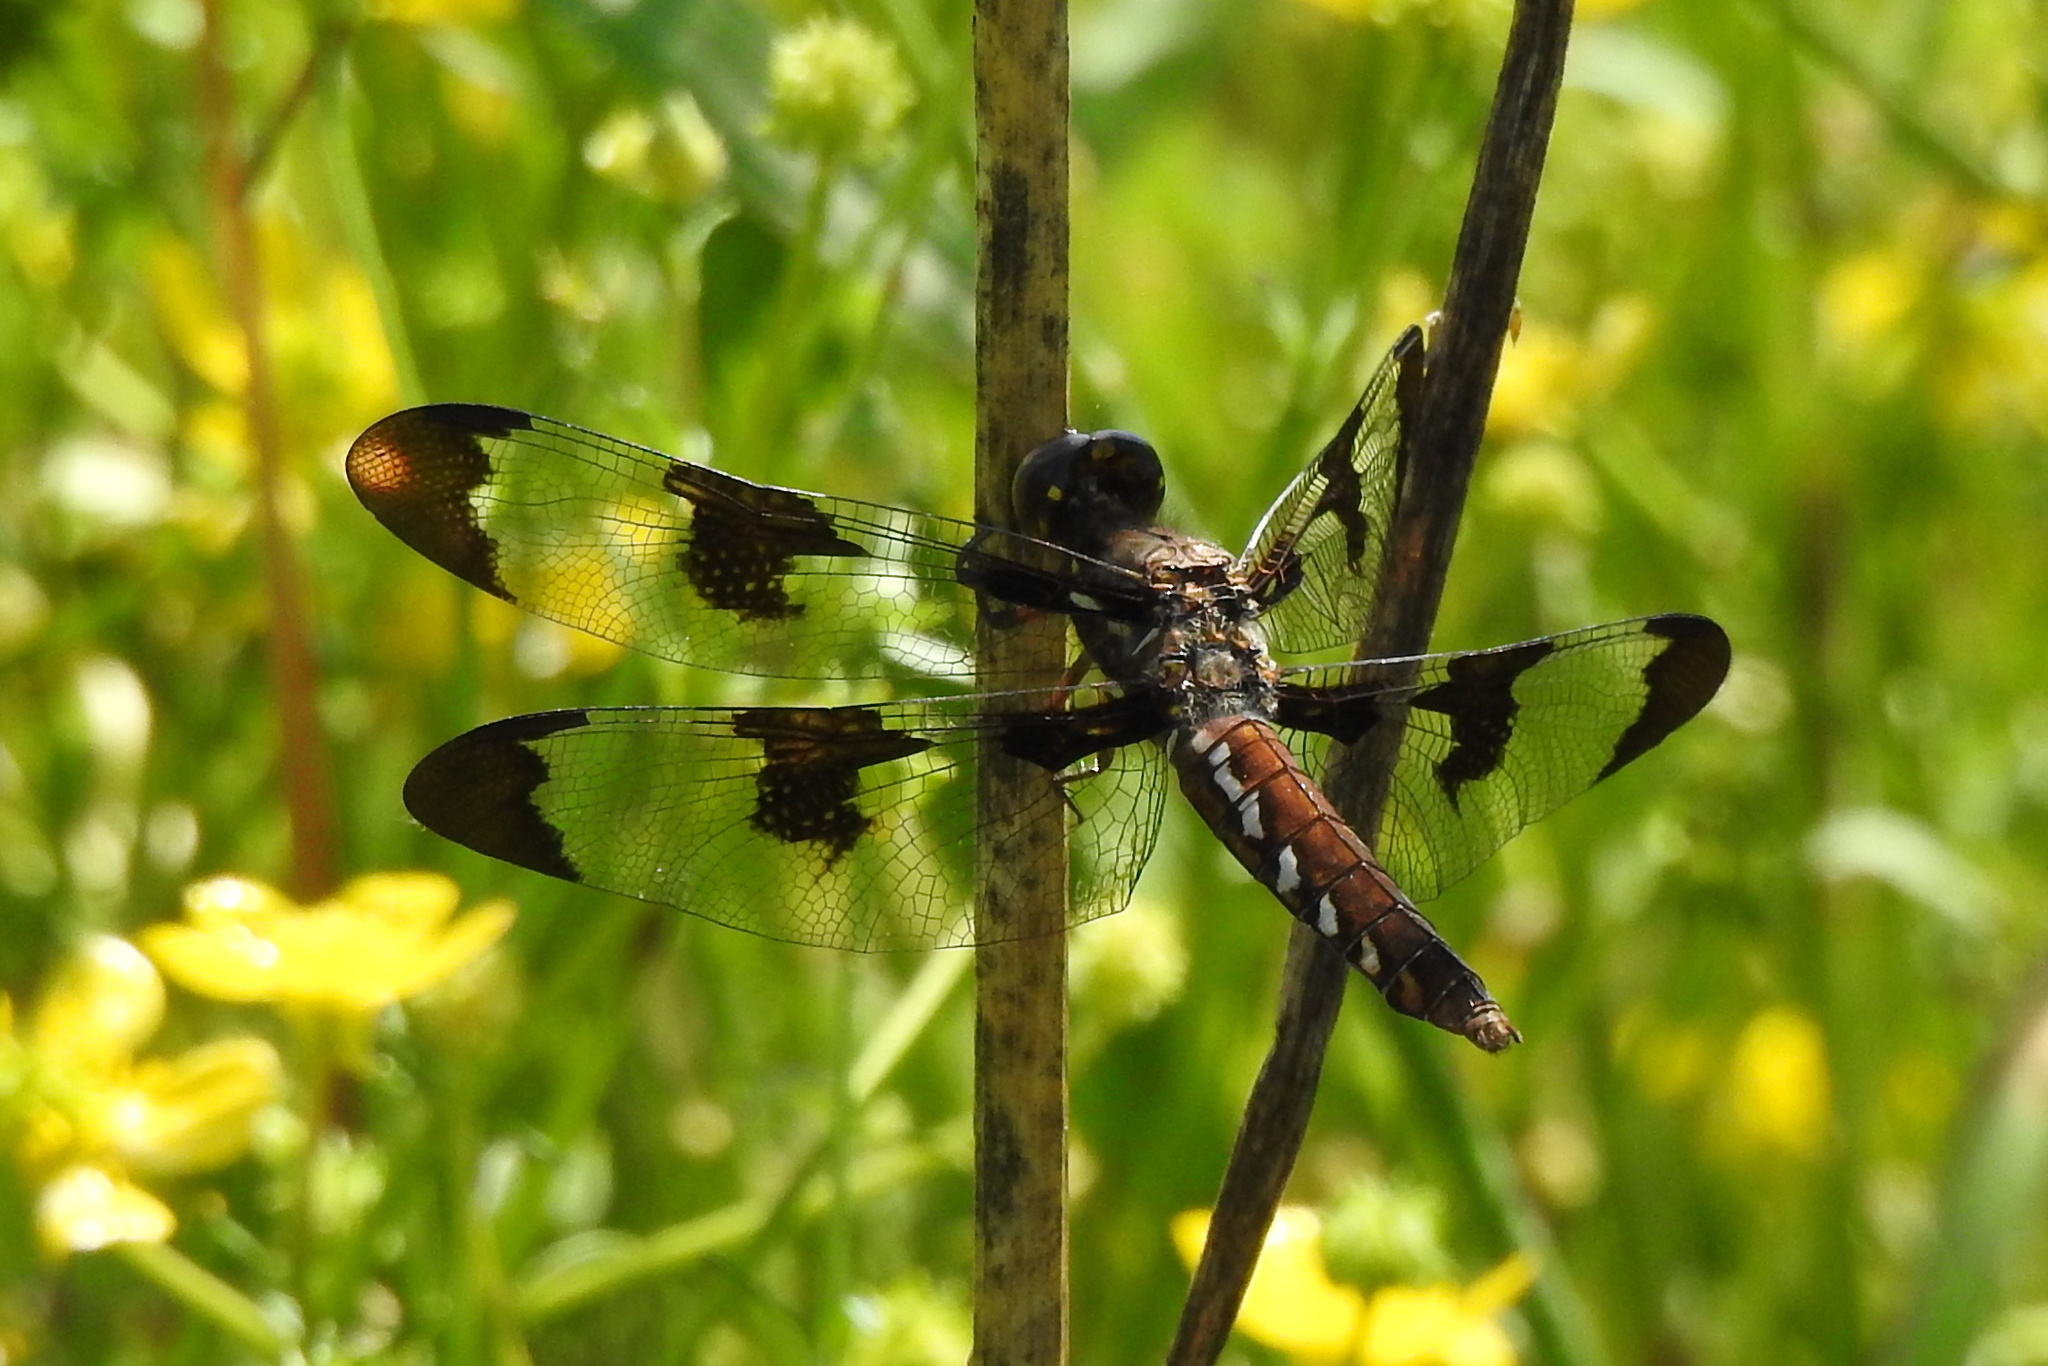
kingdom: Animalia
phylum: Arthropoda
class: Insecta
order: Odonata
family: Libellulidae
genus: Plathemis
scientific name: Plathemis lydia
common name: Common whitetail
